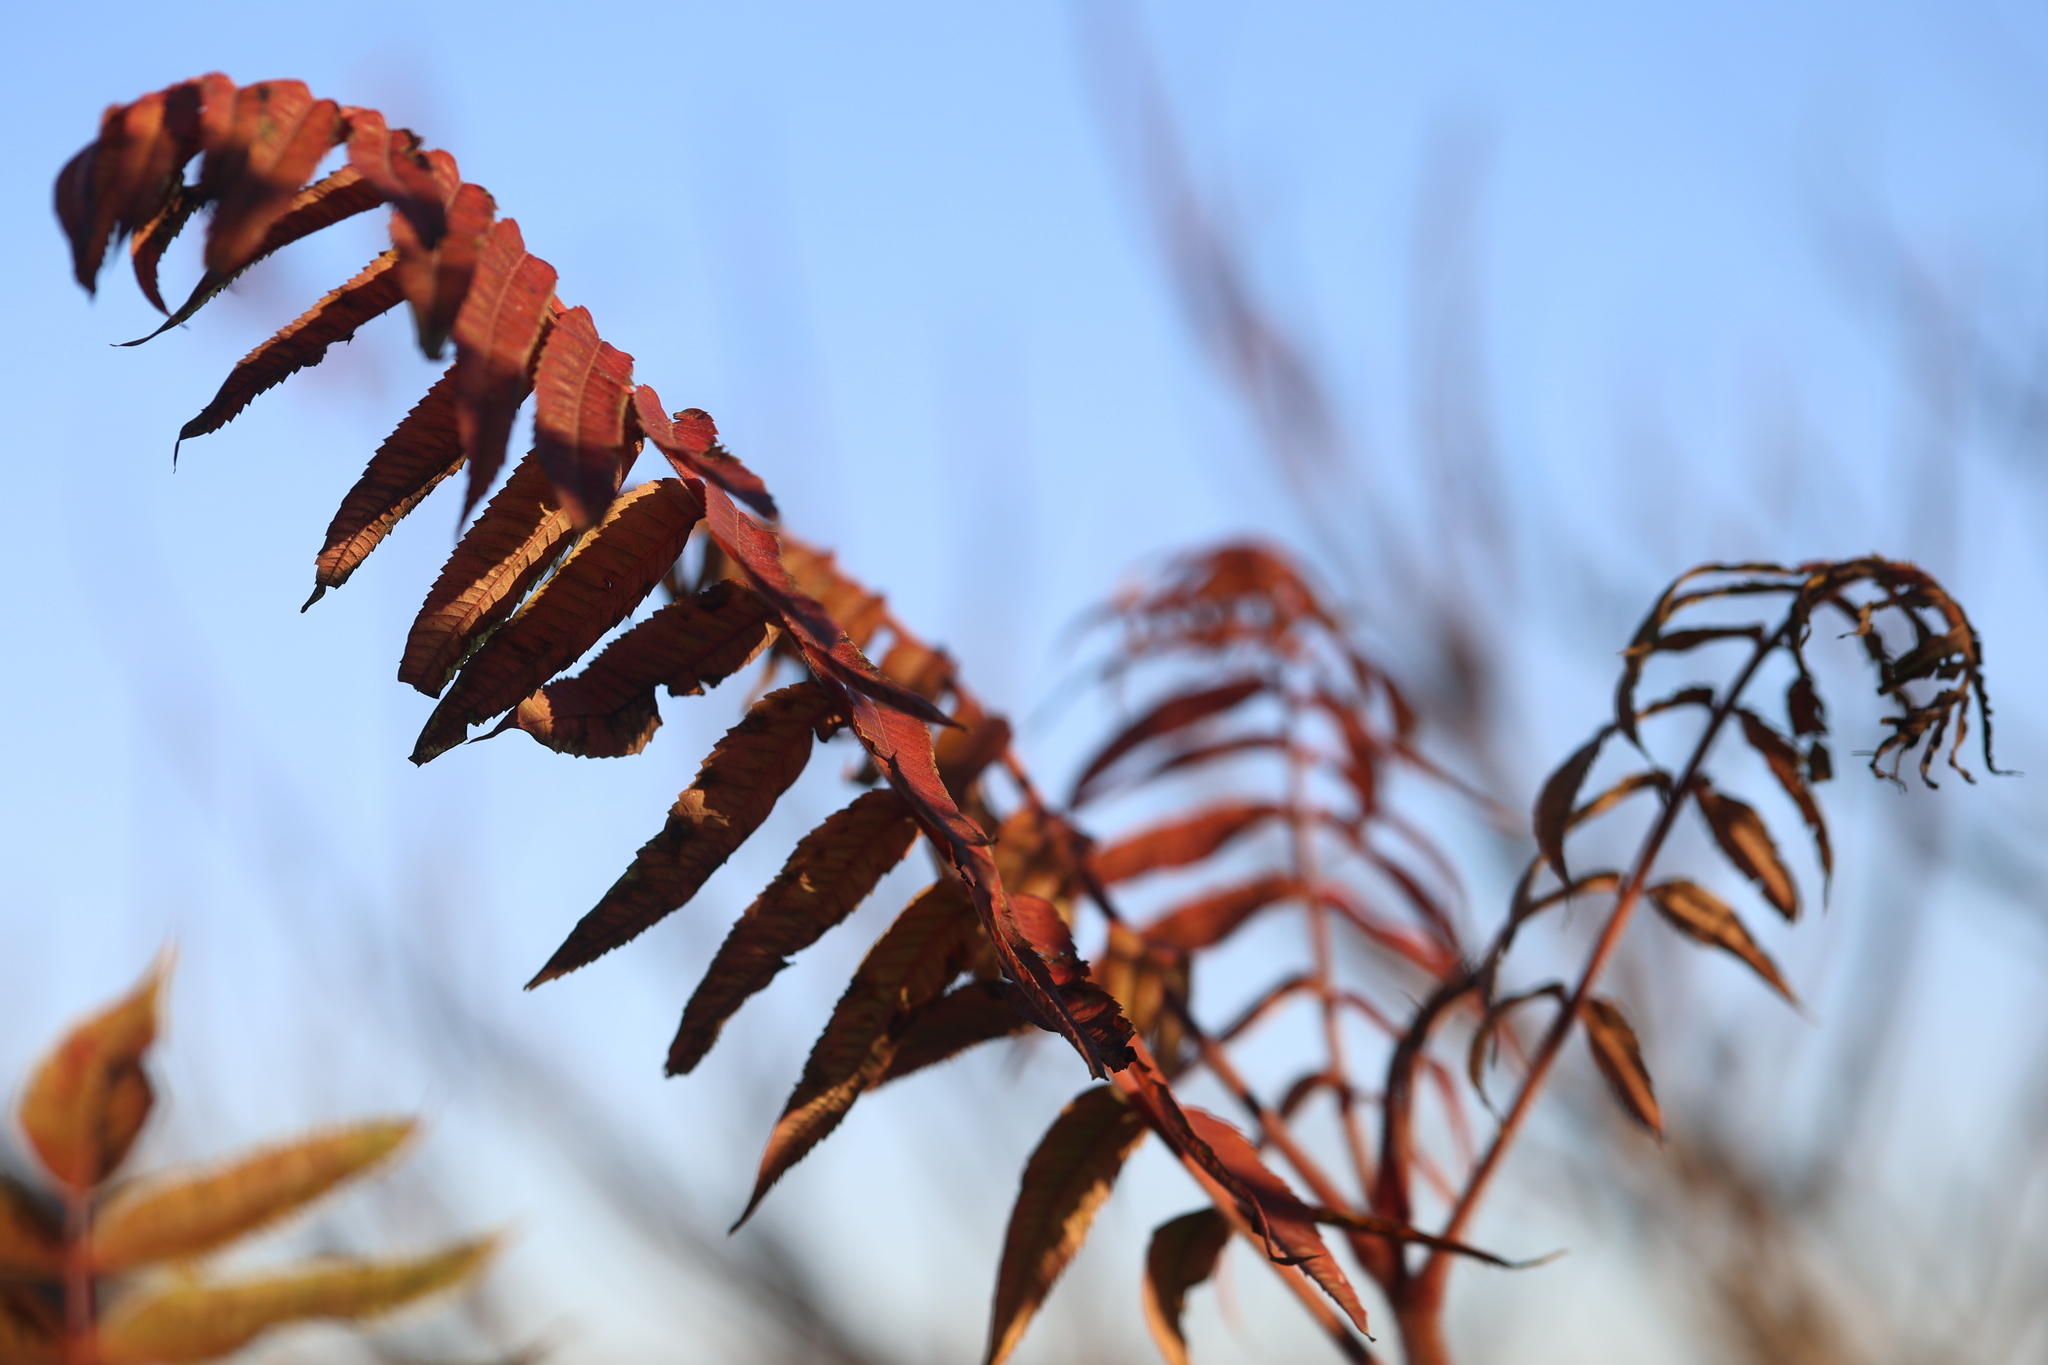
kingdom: Plantae
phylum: Tracheophyta
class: Magnoliopsida
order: Sapindales
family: Anacardiaceae
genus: Rhus
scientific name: Rhus typhina
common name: Staghorn sumac
